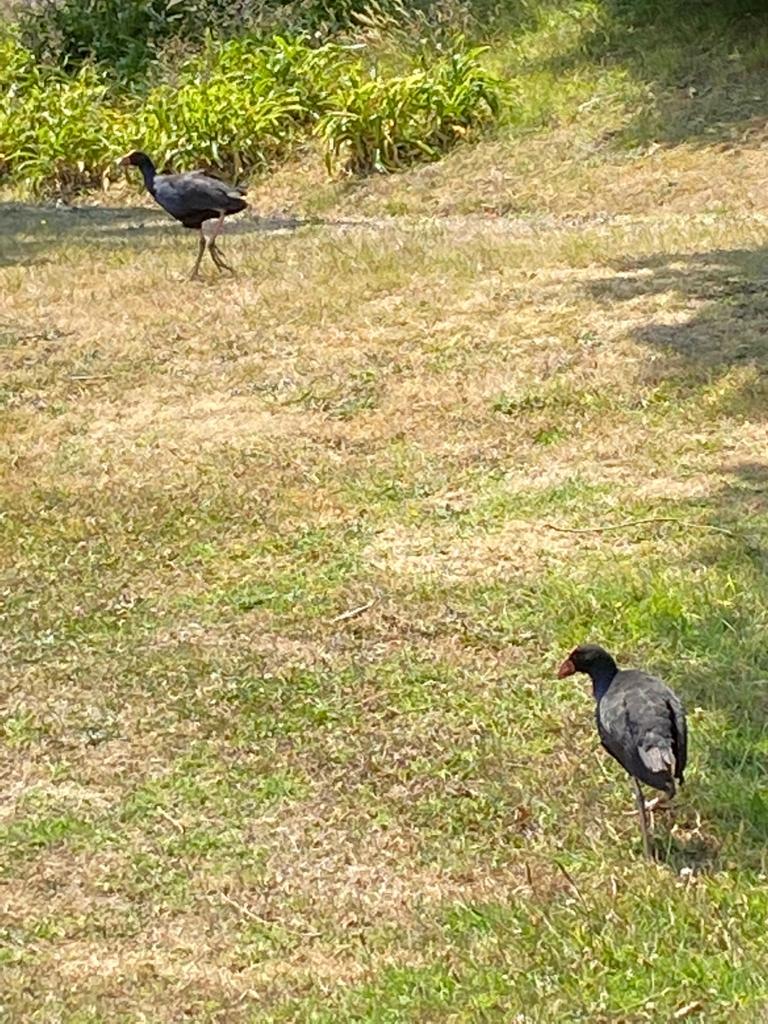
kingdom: Animalia
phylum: Chordata
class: Aves
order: Gruiformes
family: Rallidae
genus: Porphyrio
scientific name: Porphyrio melanotus
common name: Australasian swamphen
